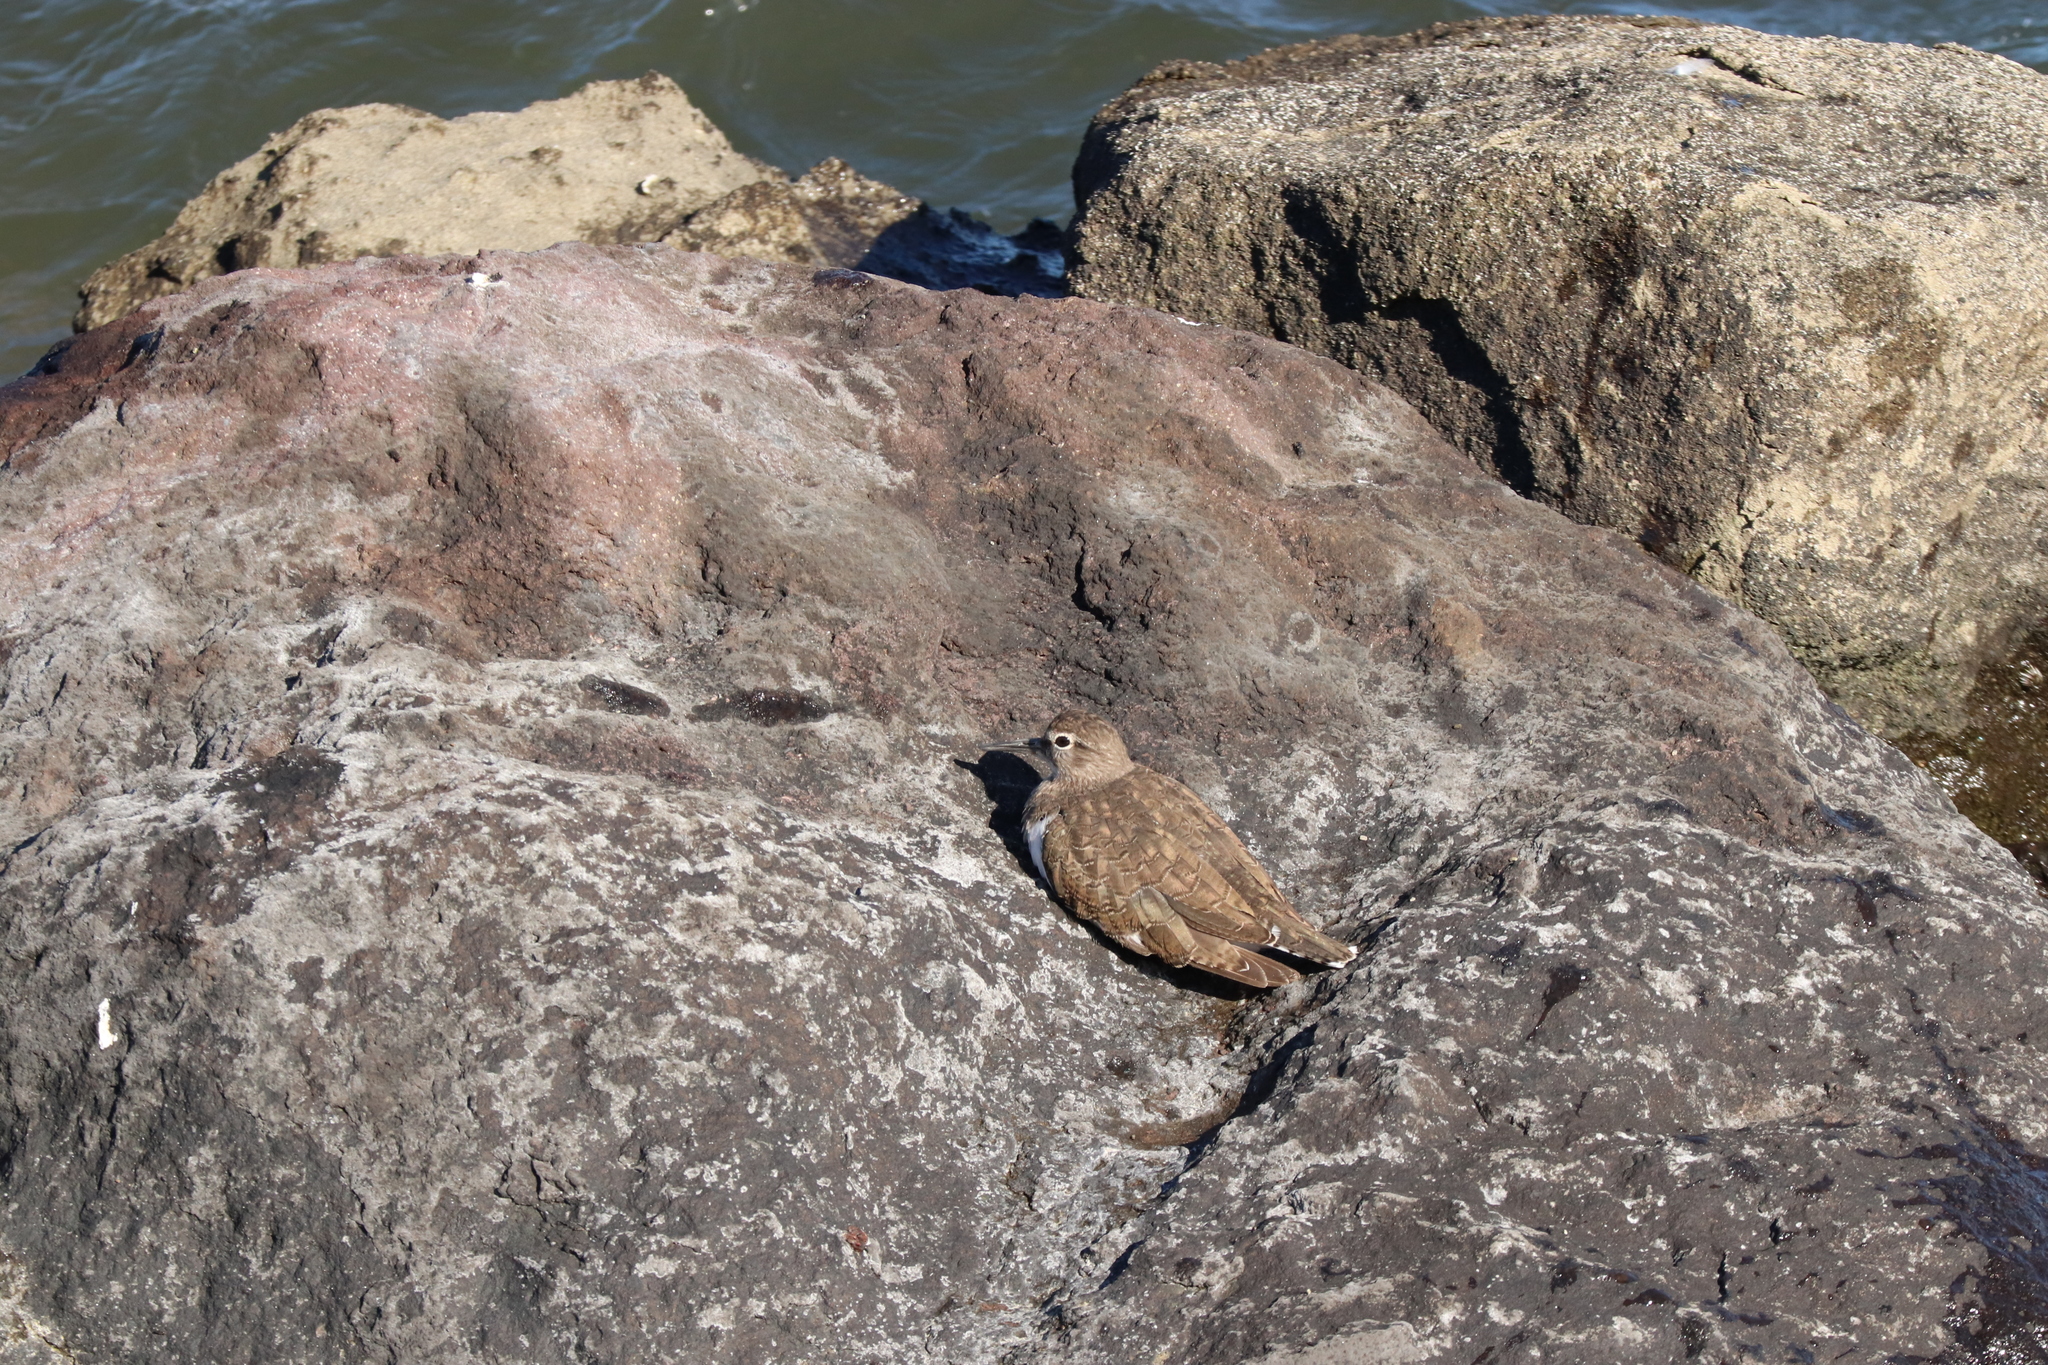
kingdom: Animalia
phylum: Chordata
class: Aves
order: Charadriiformes
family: Scolopacidae
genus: Actitis
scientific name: Actitis hypoleucos
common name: Common sandpiper
